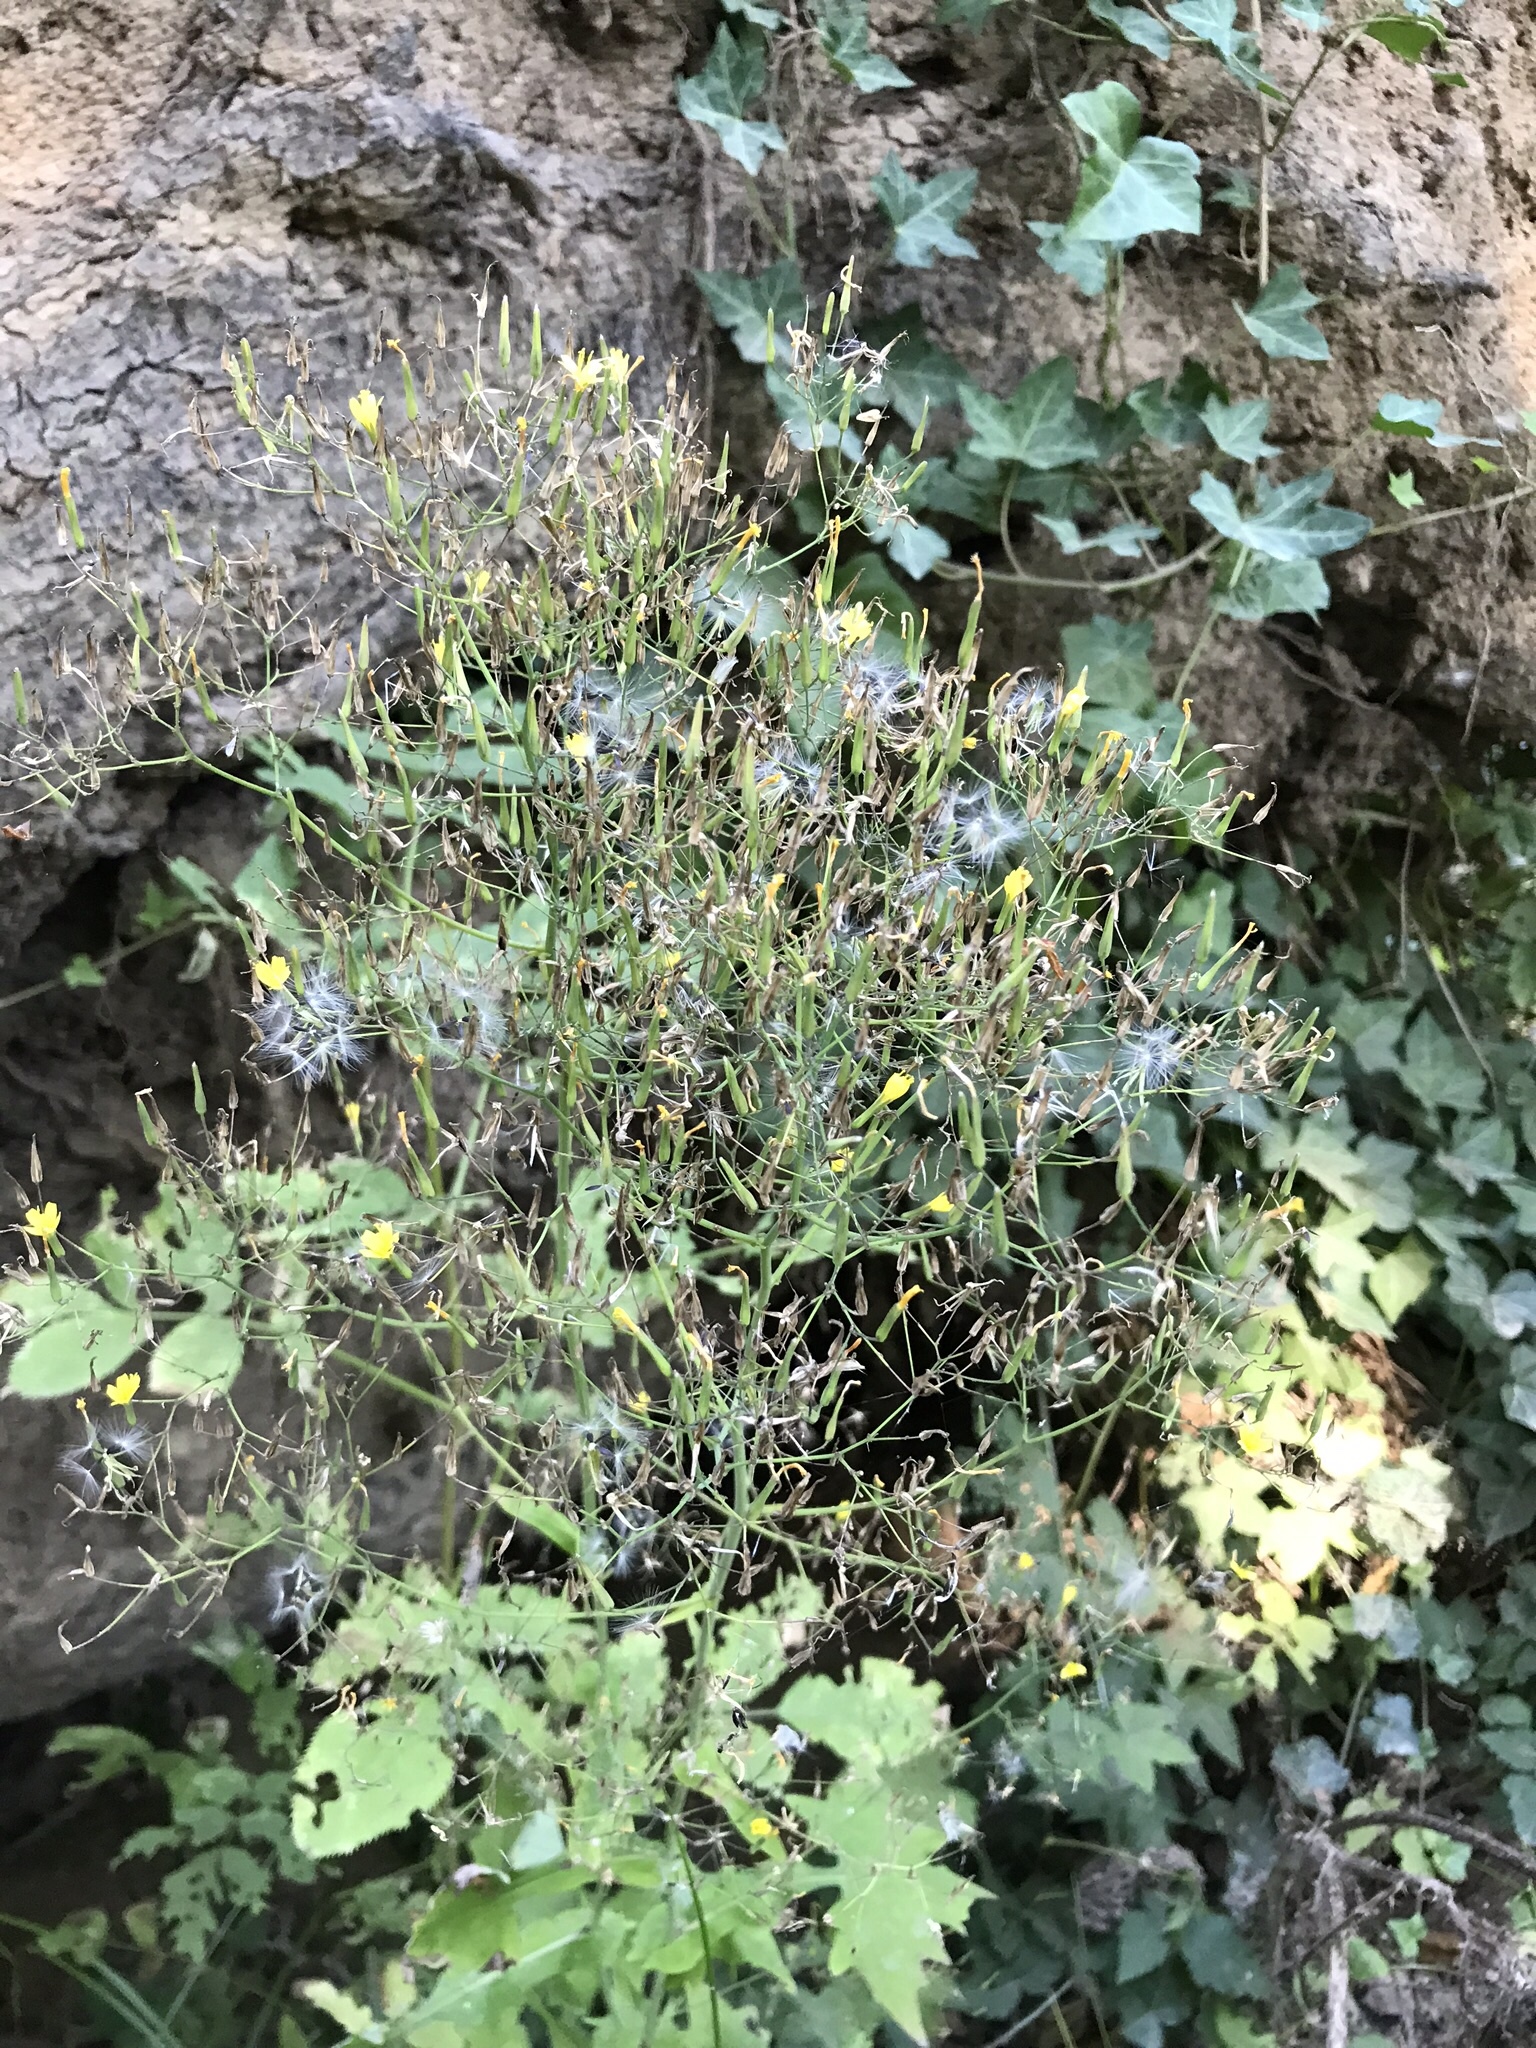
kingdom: Plantae
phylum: Tracheophyta
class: Magnoliopsida
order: Asterales
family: Asteraceae
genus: Mycelis
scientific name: Mycelis muralis
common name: Wall lettuce
